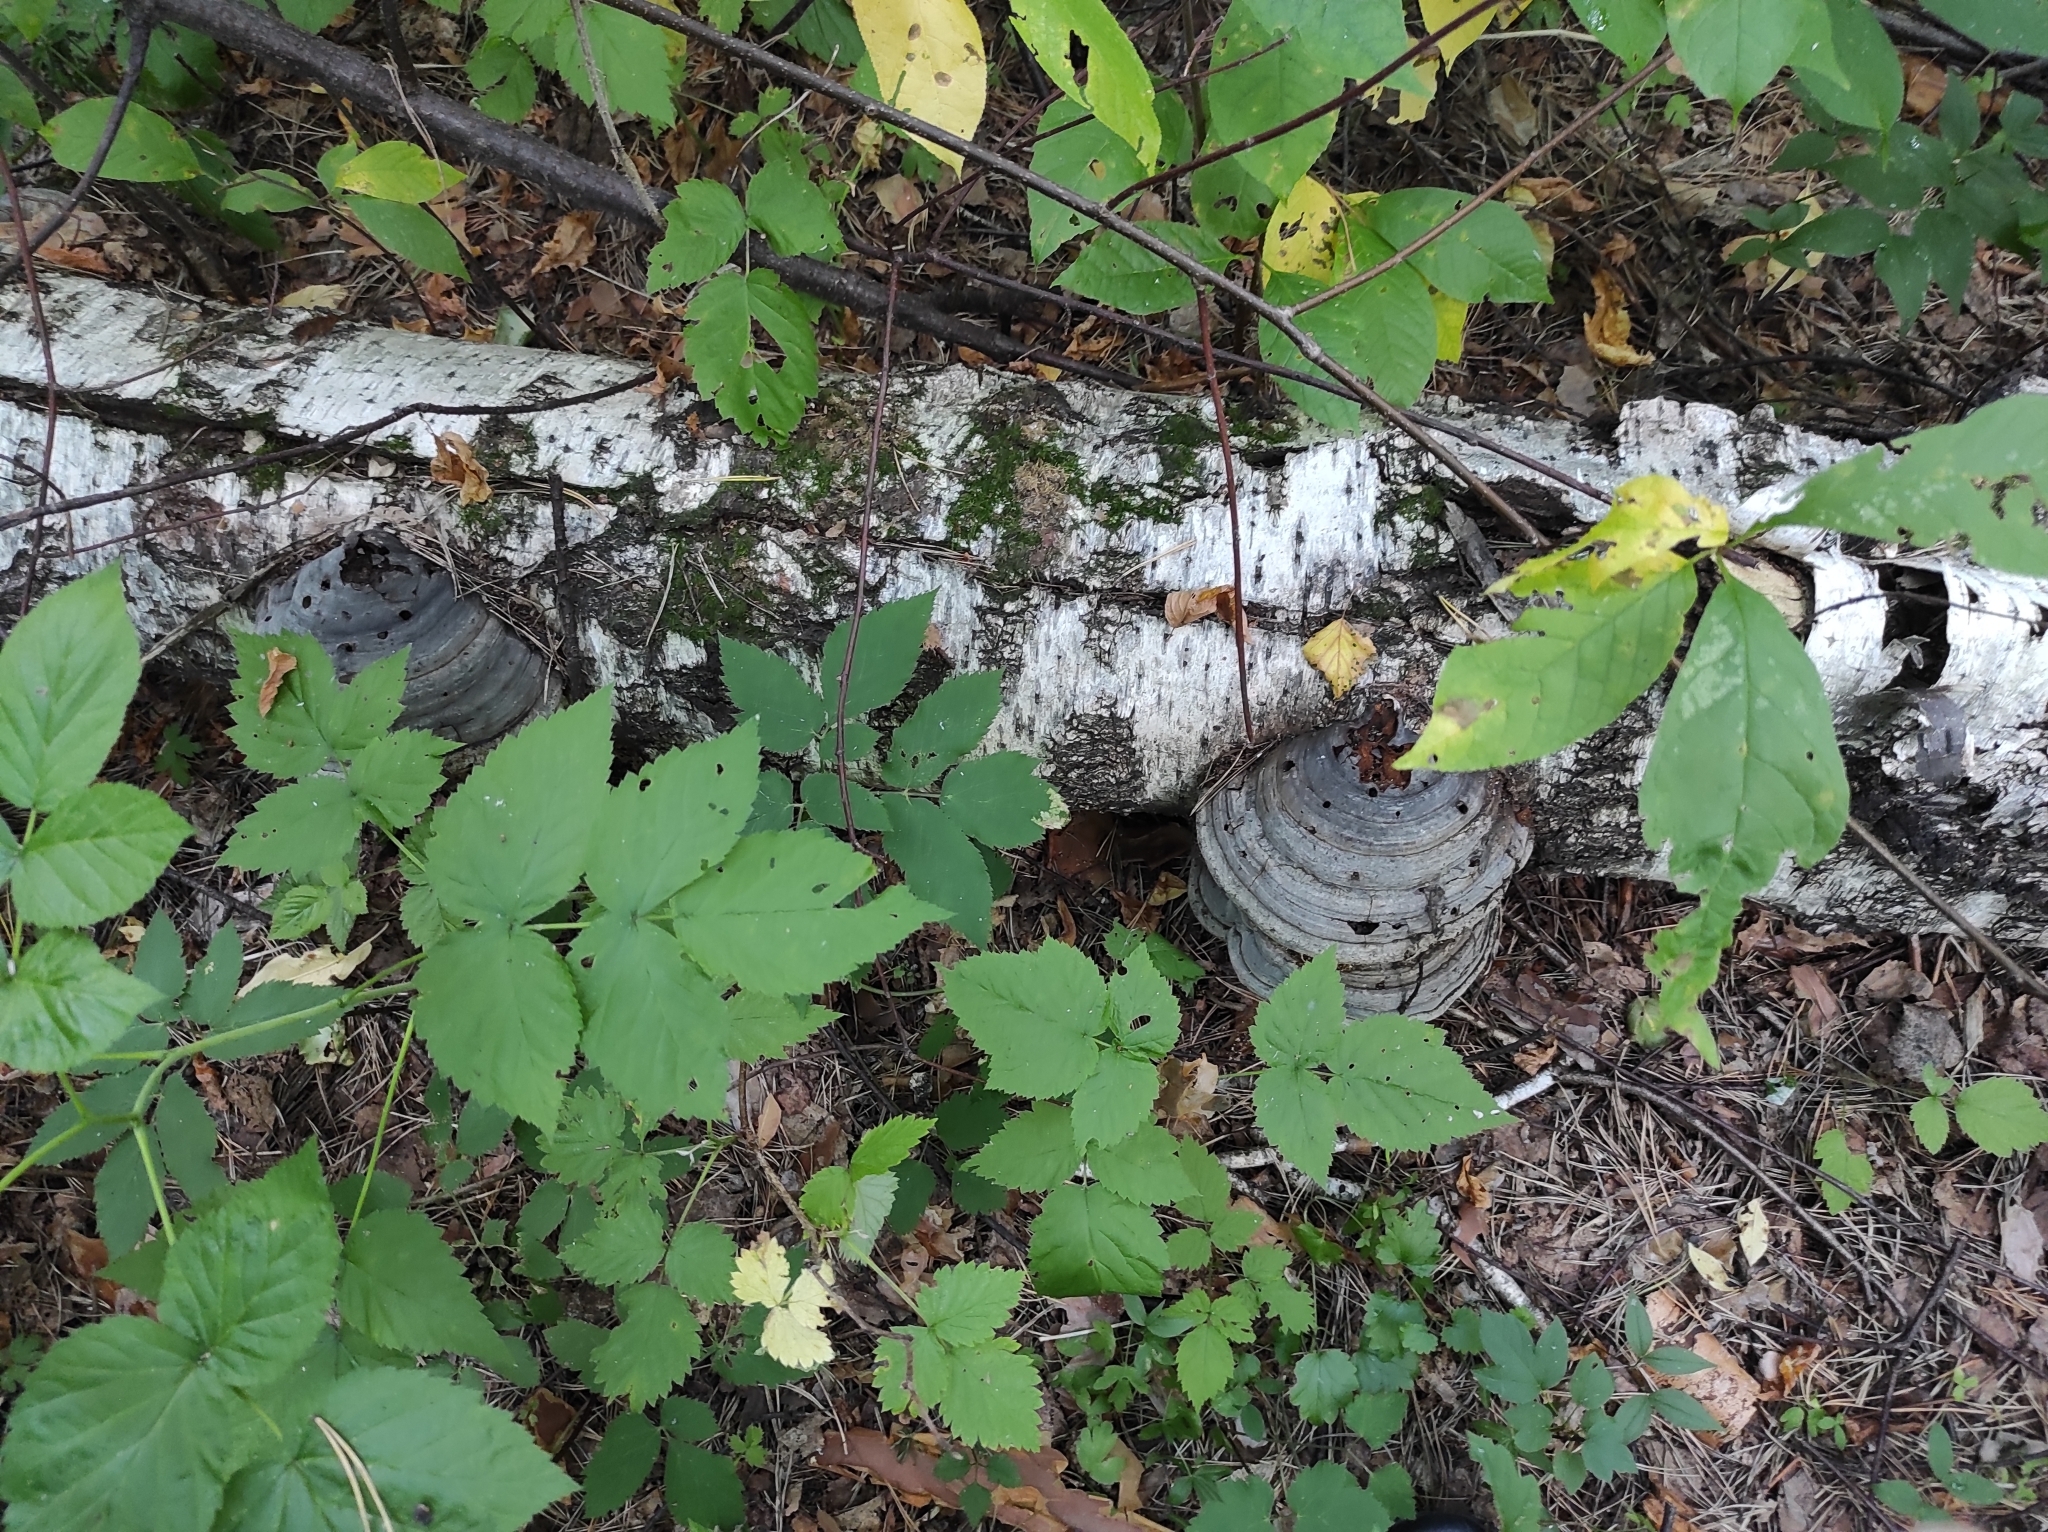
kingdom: Plantae
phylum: Tracheophyta
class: Magnoliopsida
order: Rosales
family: Rosaceae
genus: Rubus
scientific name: Rubus idaeus
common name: Raspberry
